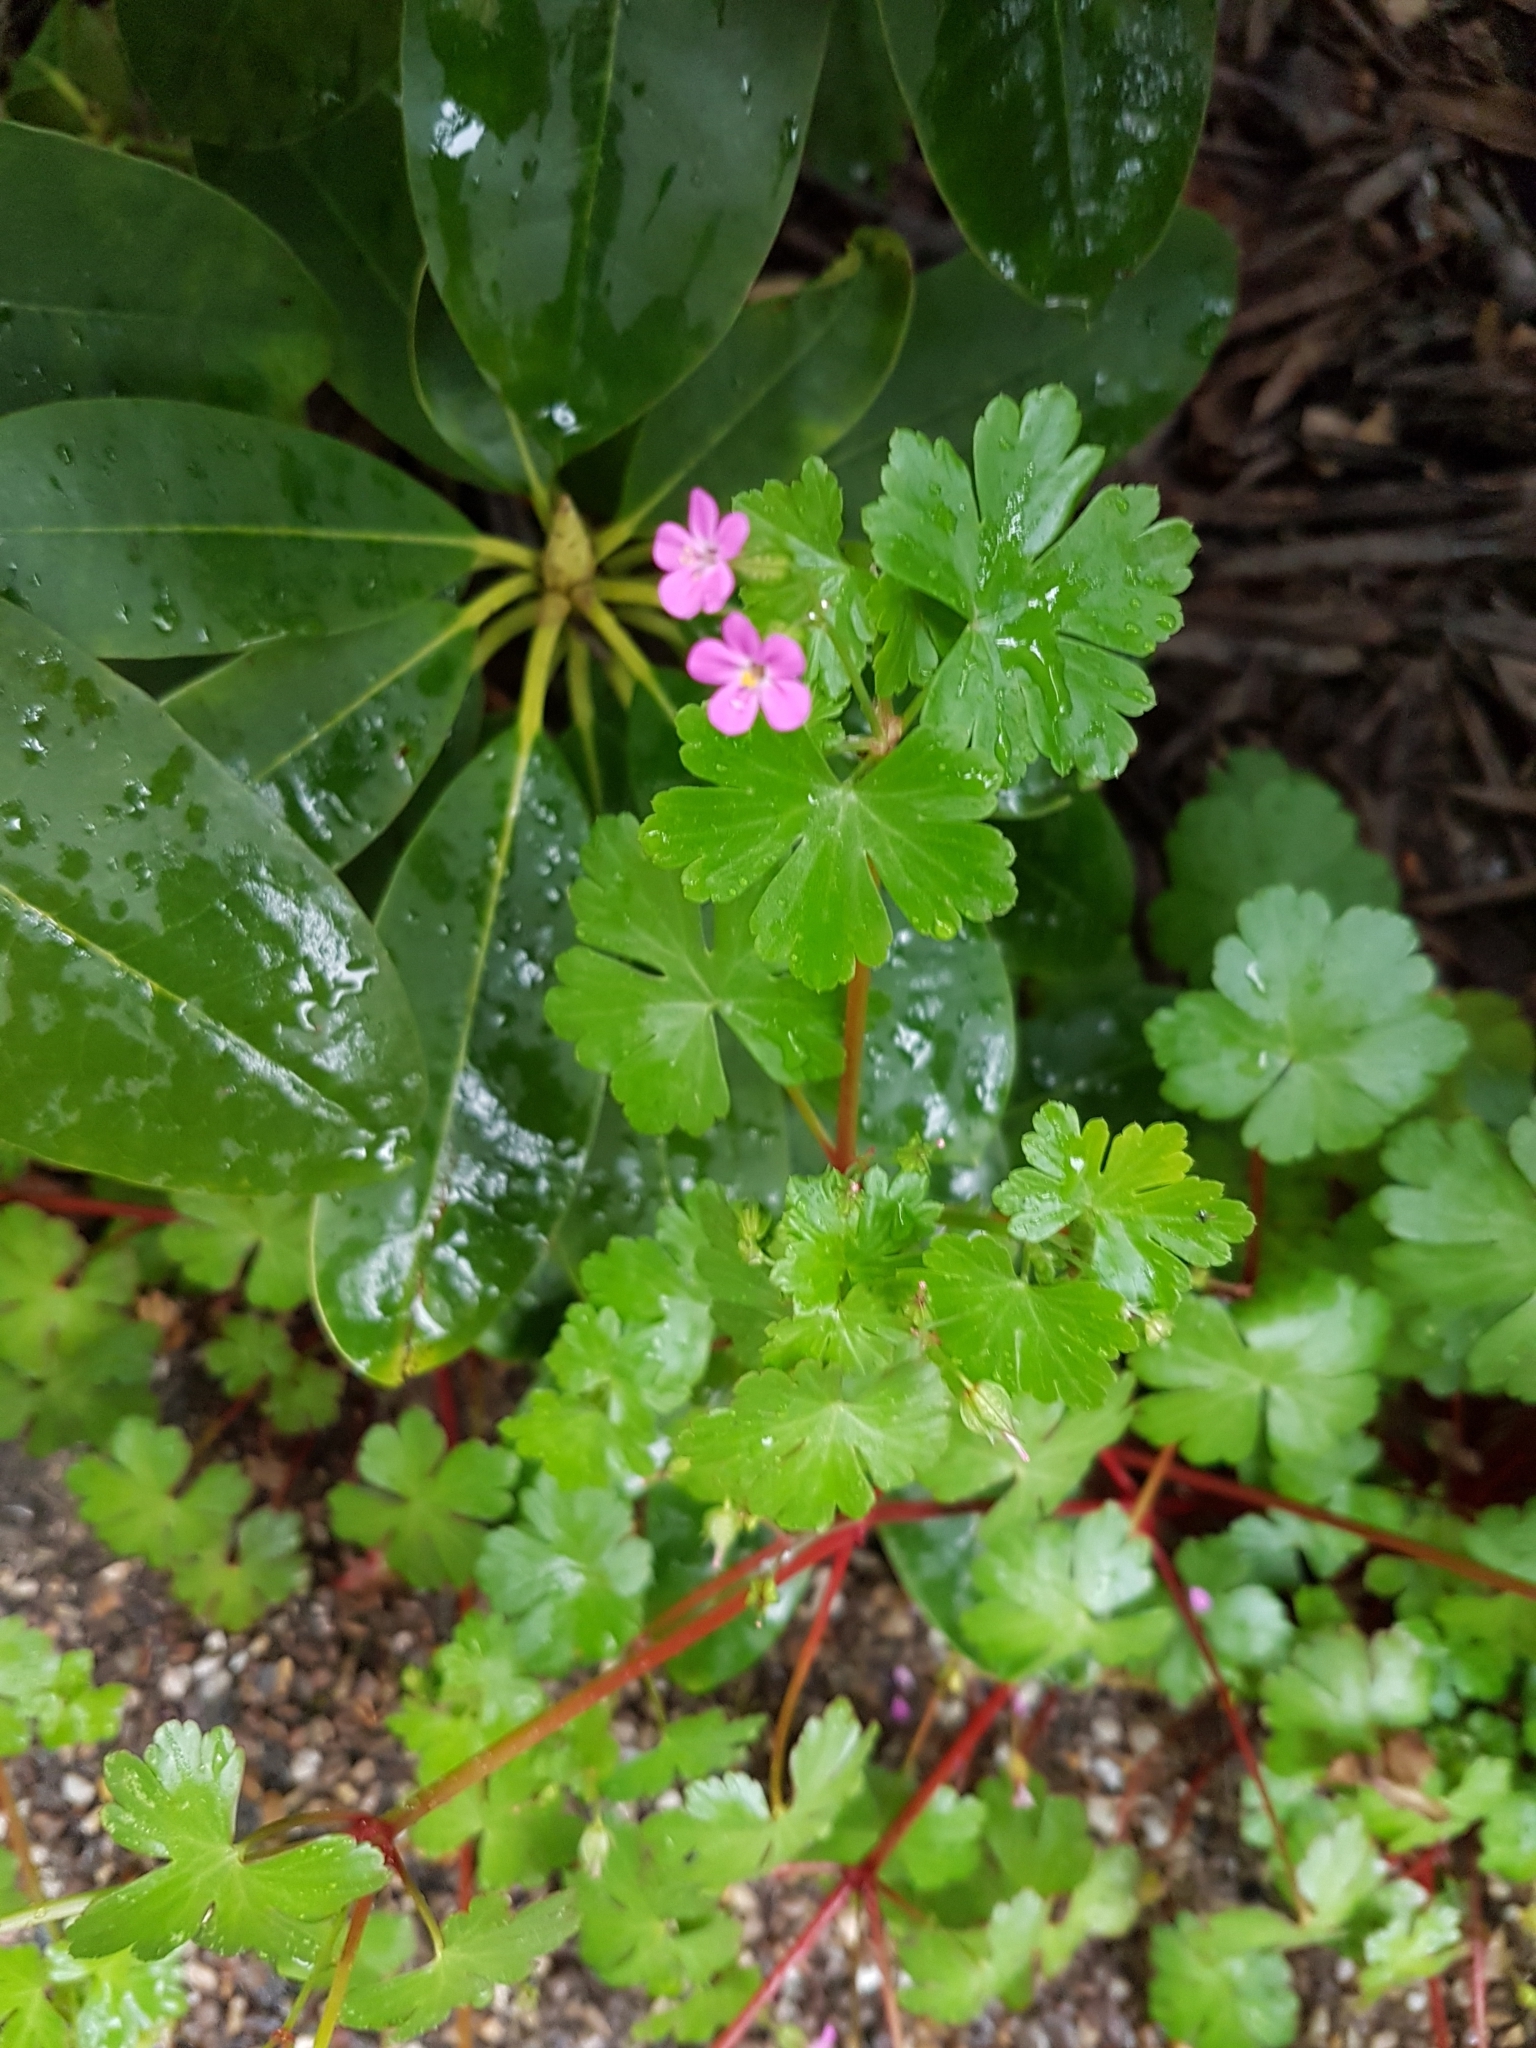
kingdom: Plantae
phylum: Tracheophyta
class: Magnoliopsida
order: Geraniales
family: Geraniaceae
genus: Geranium
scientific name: Geranium lucidum
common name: Shining crane's-bill
